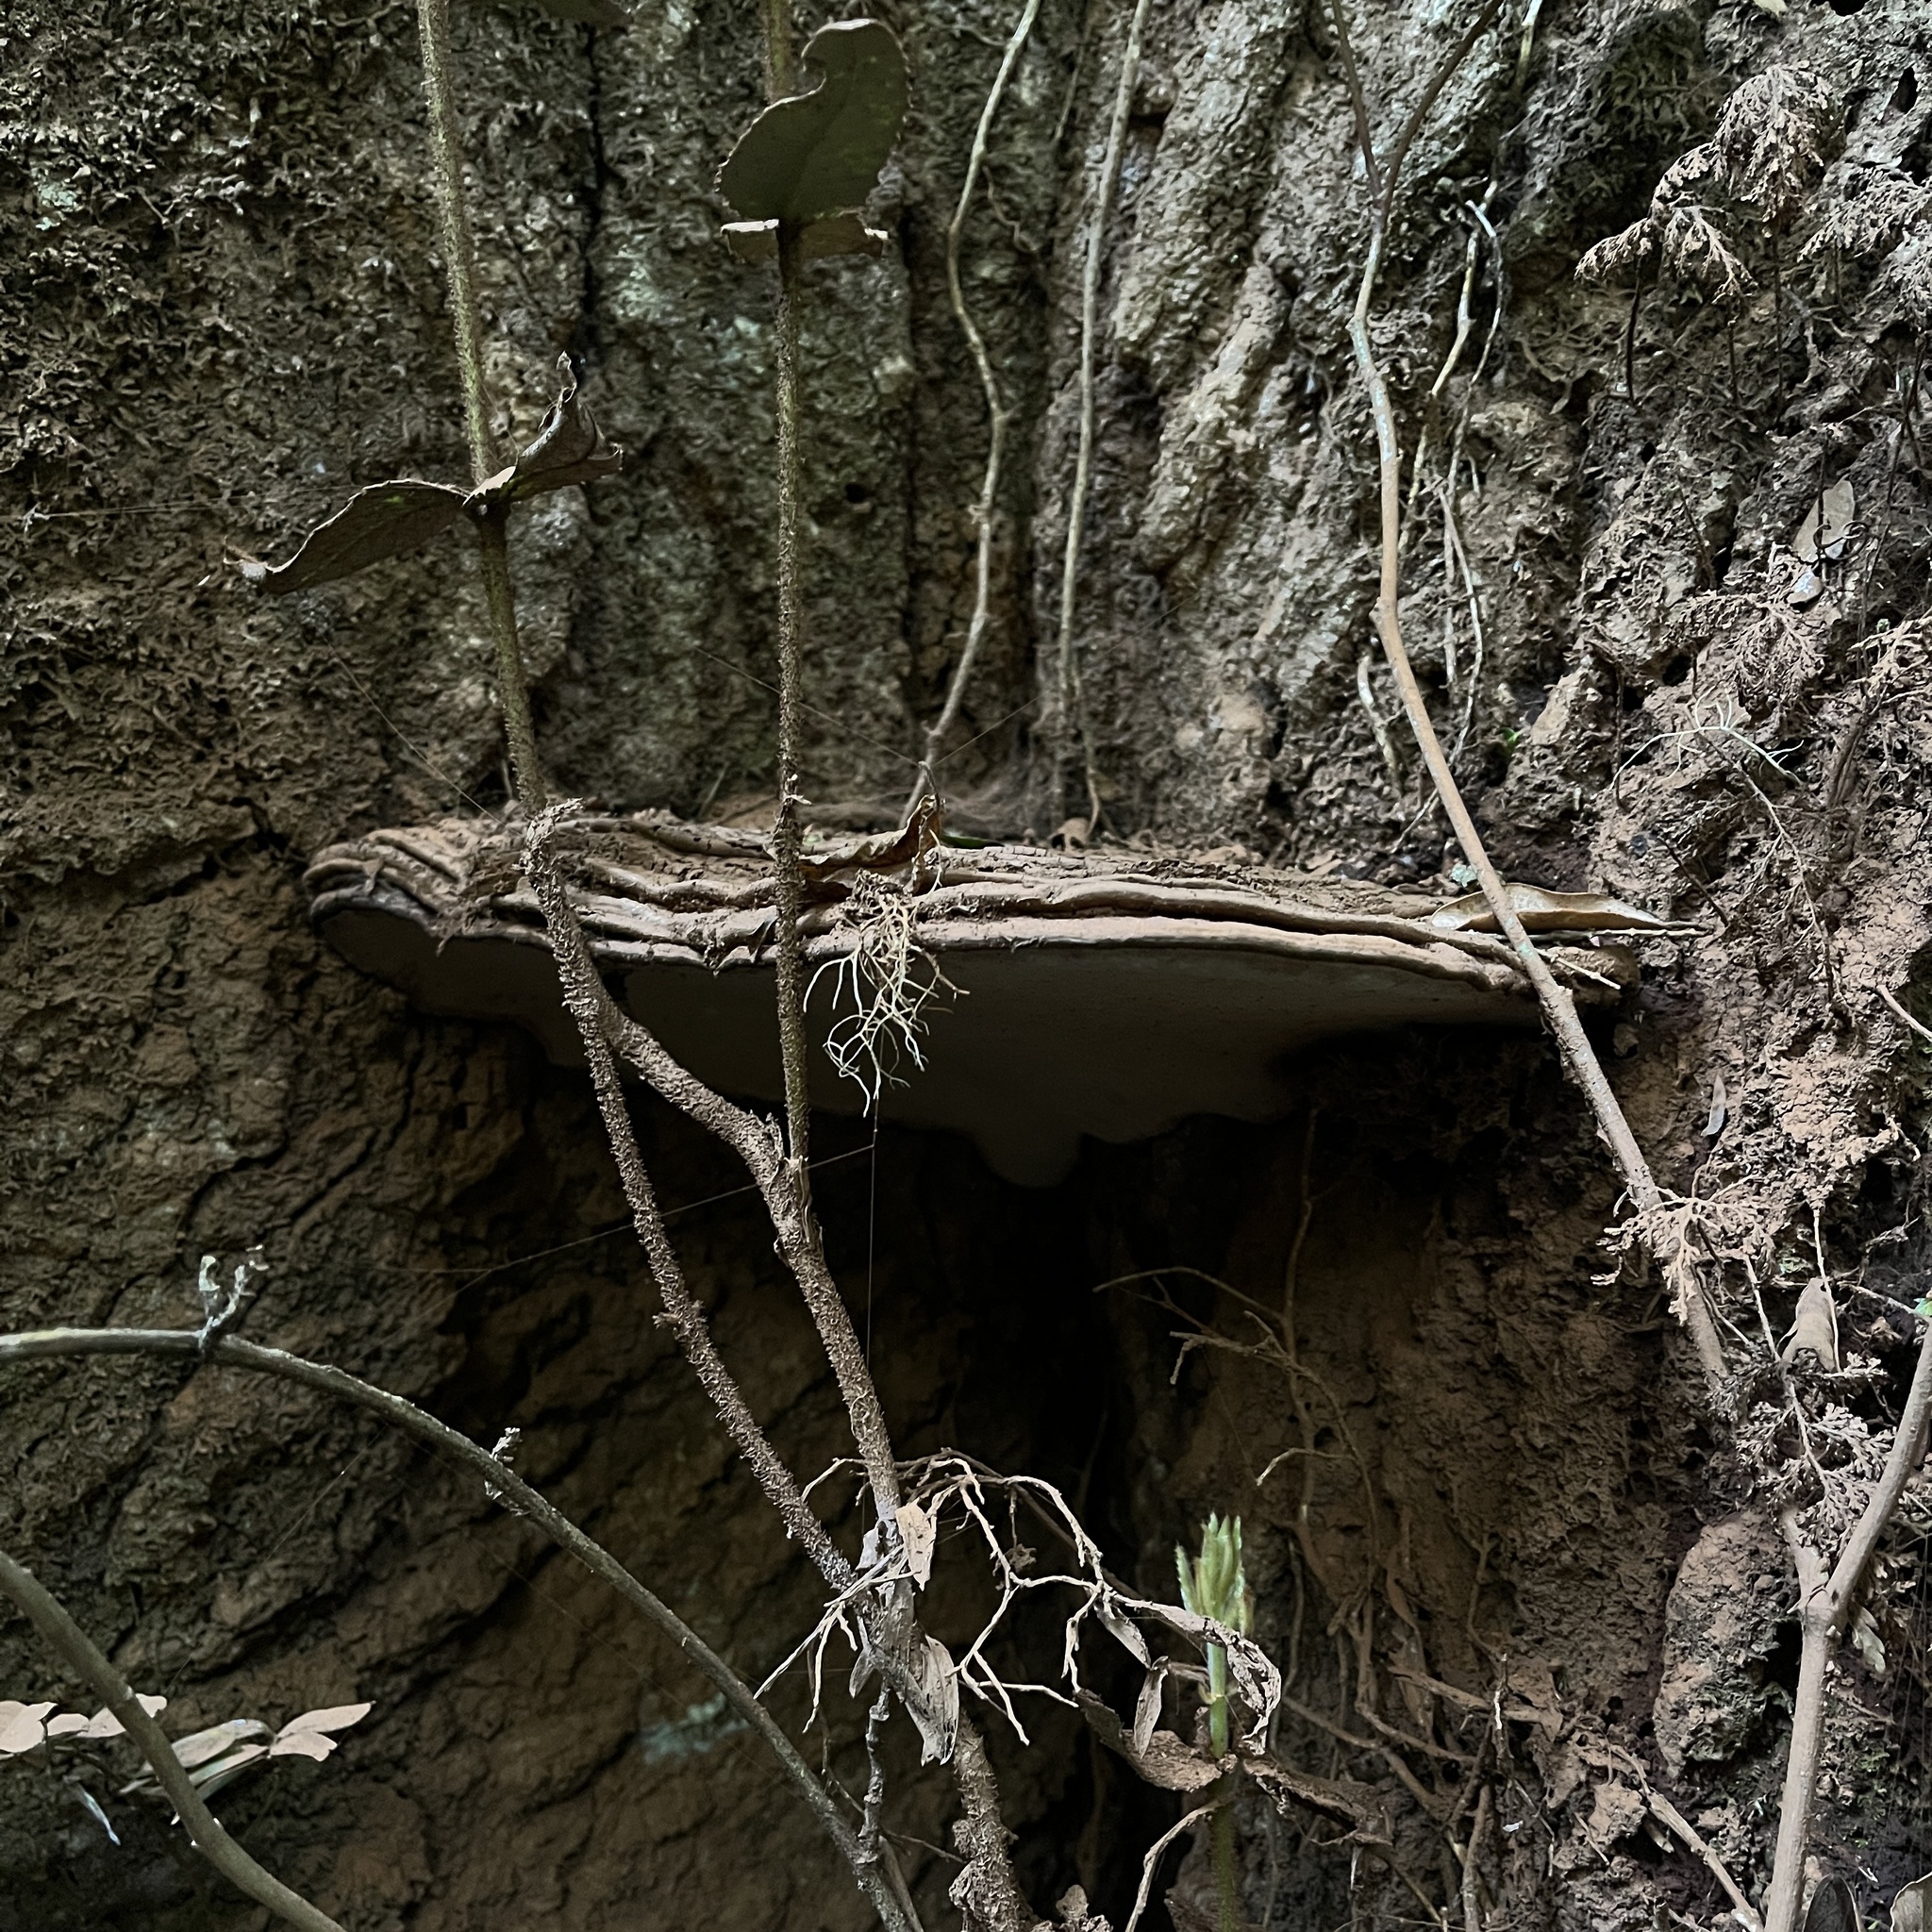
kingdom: Fungi
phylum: Basidiomycota
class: Agaricomycetes
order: Polyporales
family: Polyporaceae
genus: Ganoderma
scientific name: Ganoderma australe
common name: Southern bracket
